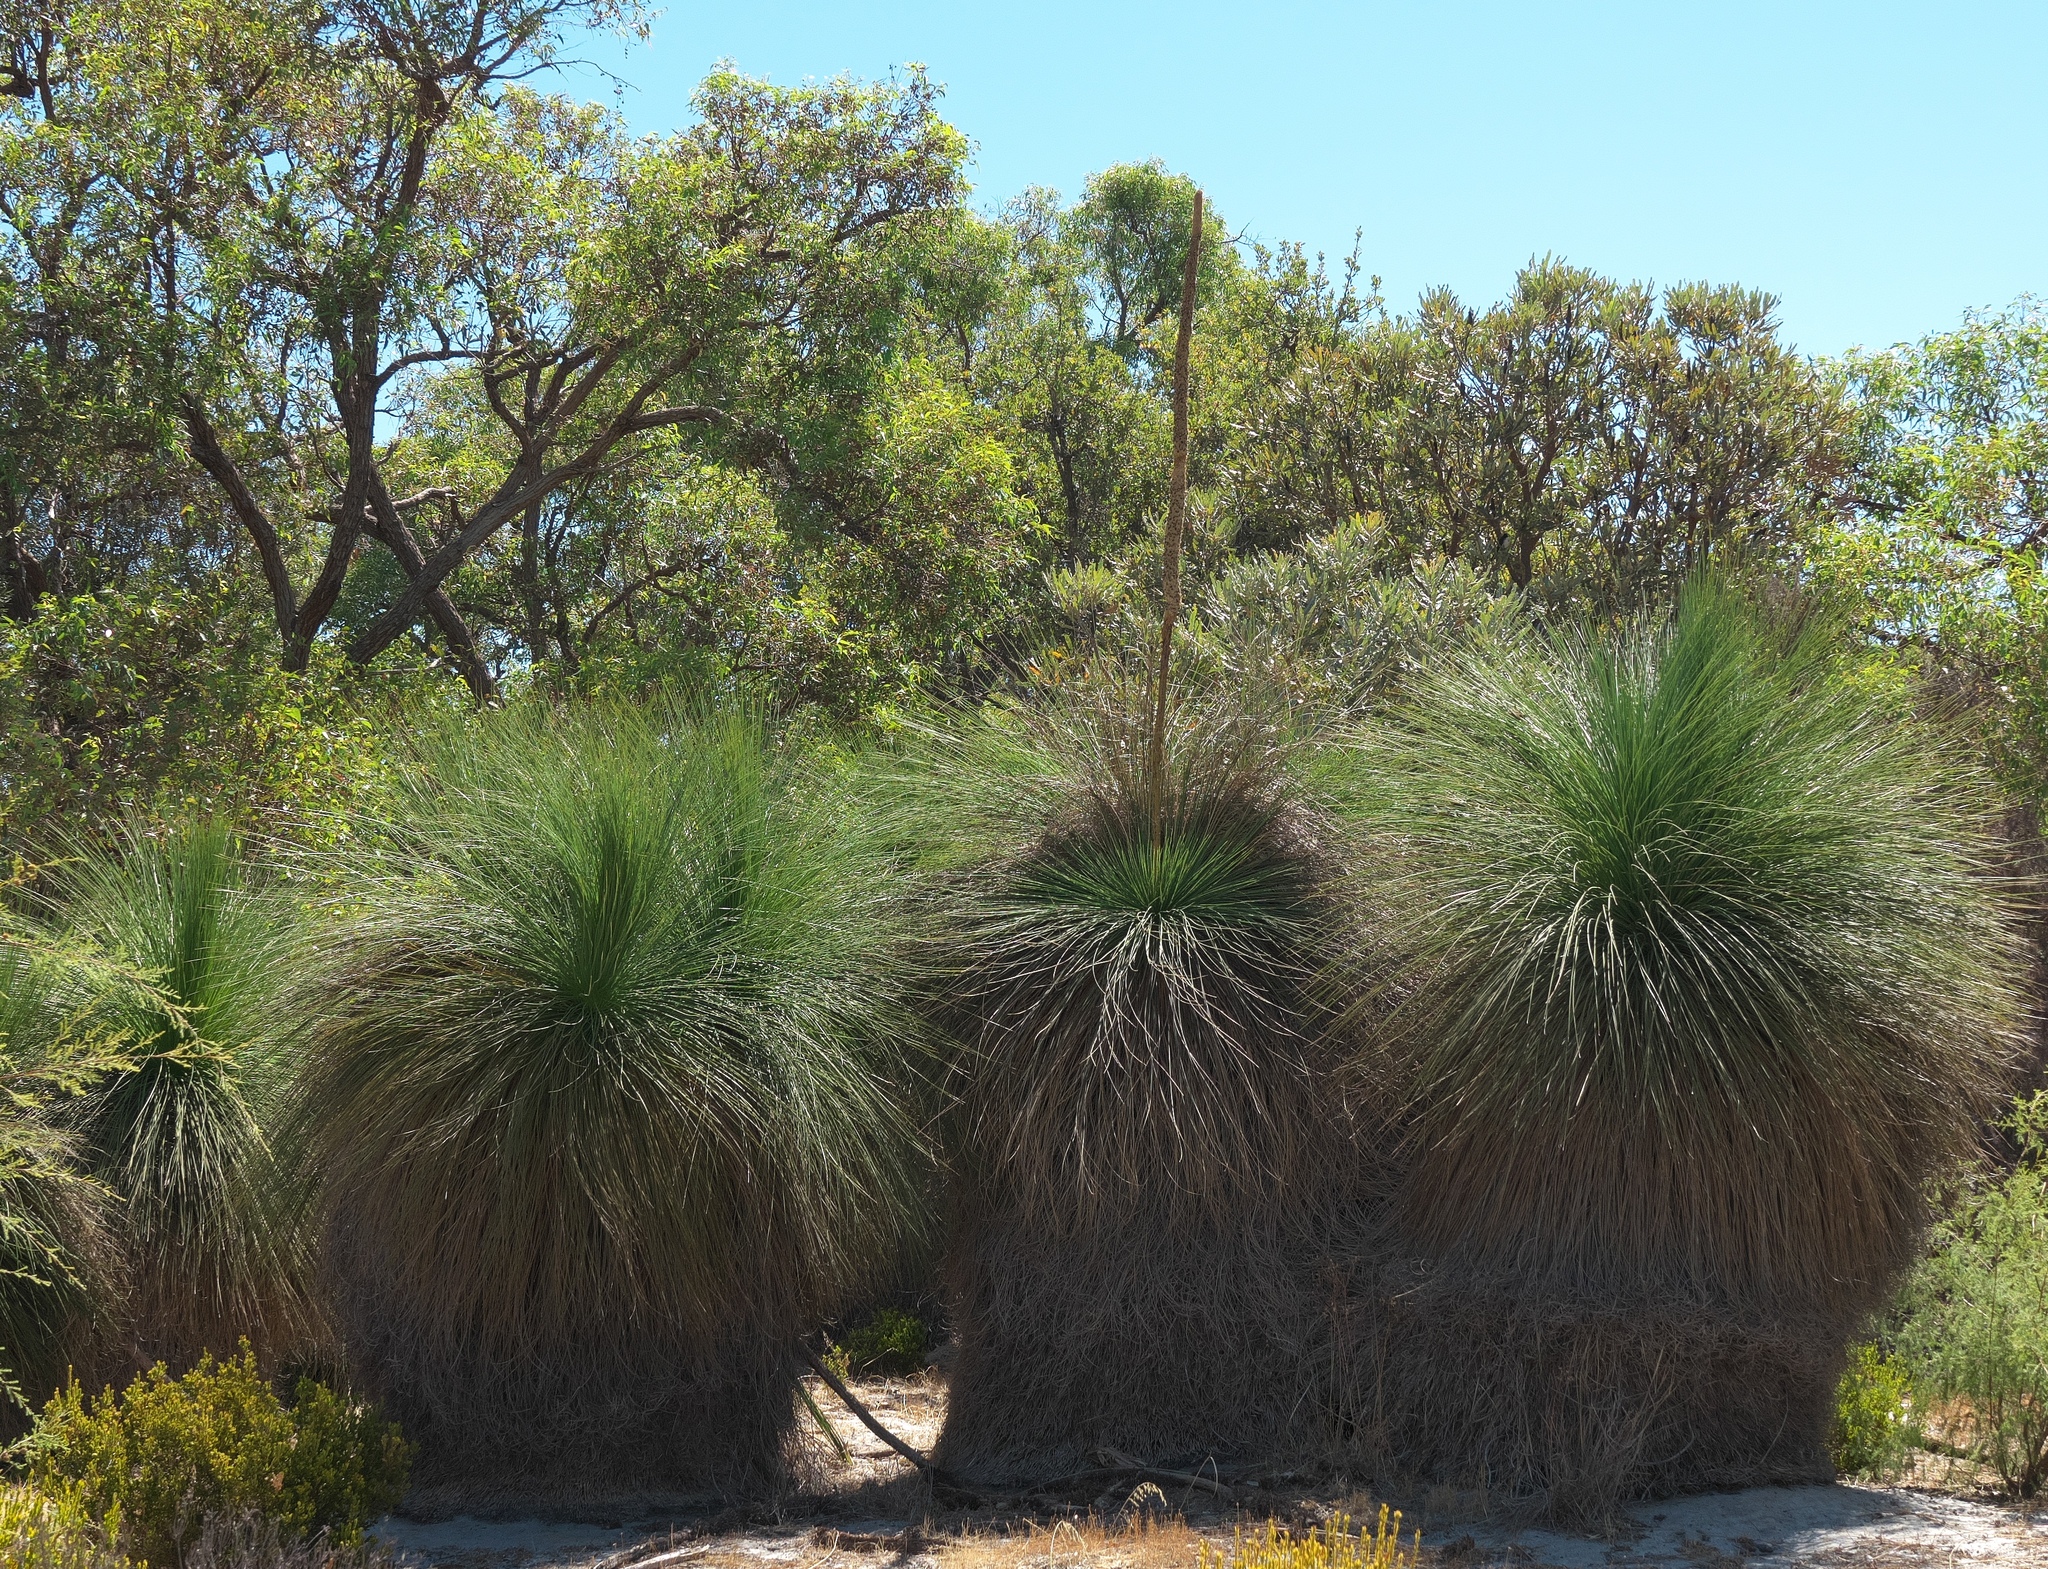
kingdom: Plantae
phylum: Tracheophyta
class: Liliopsida
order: Asparagales
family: Asphodelaceae
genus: Xanthorrhoea
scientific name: Xanthorrhoea preissii
